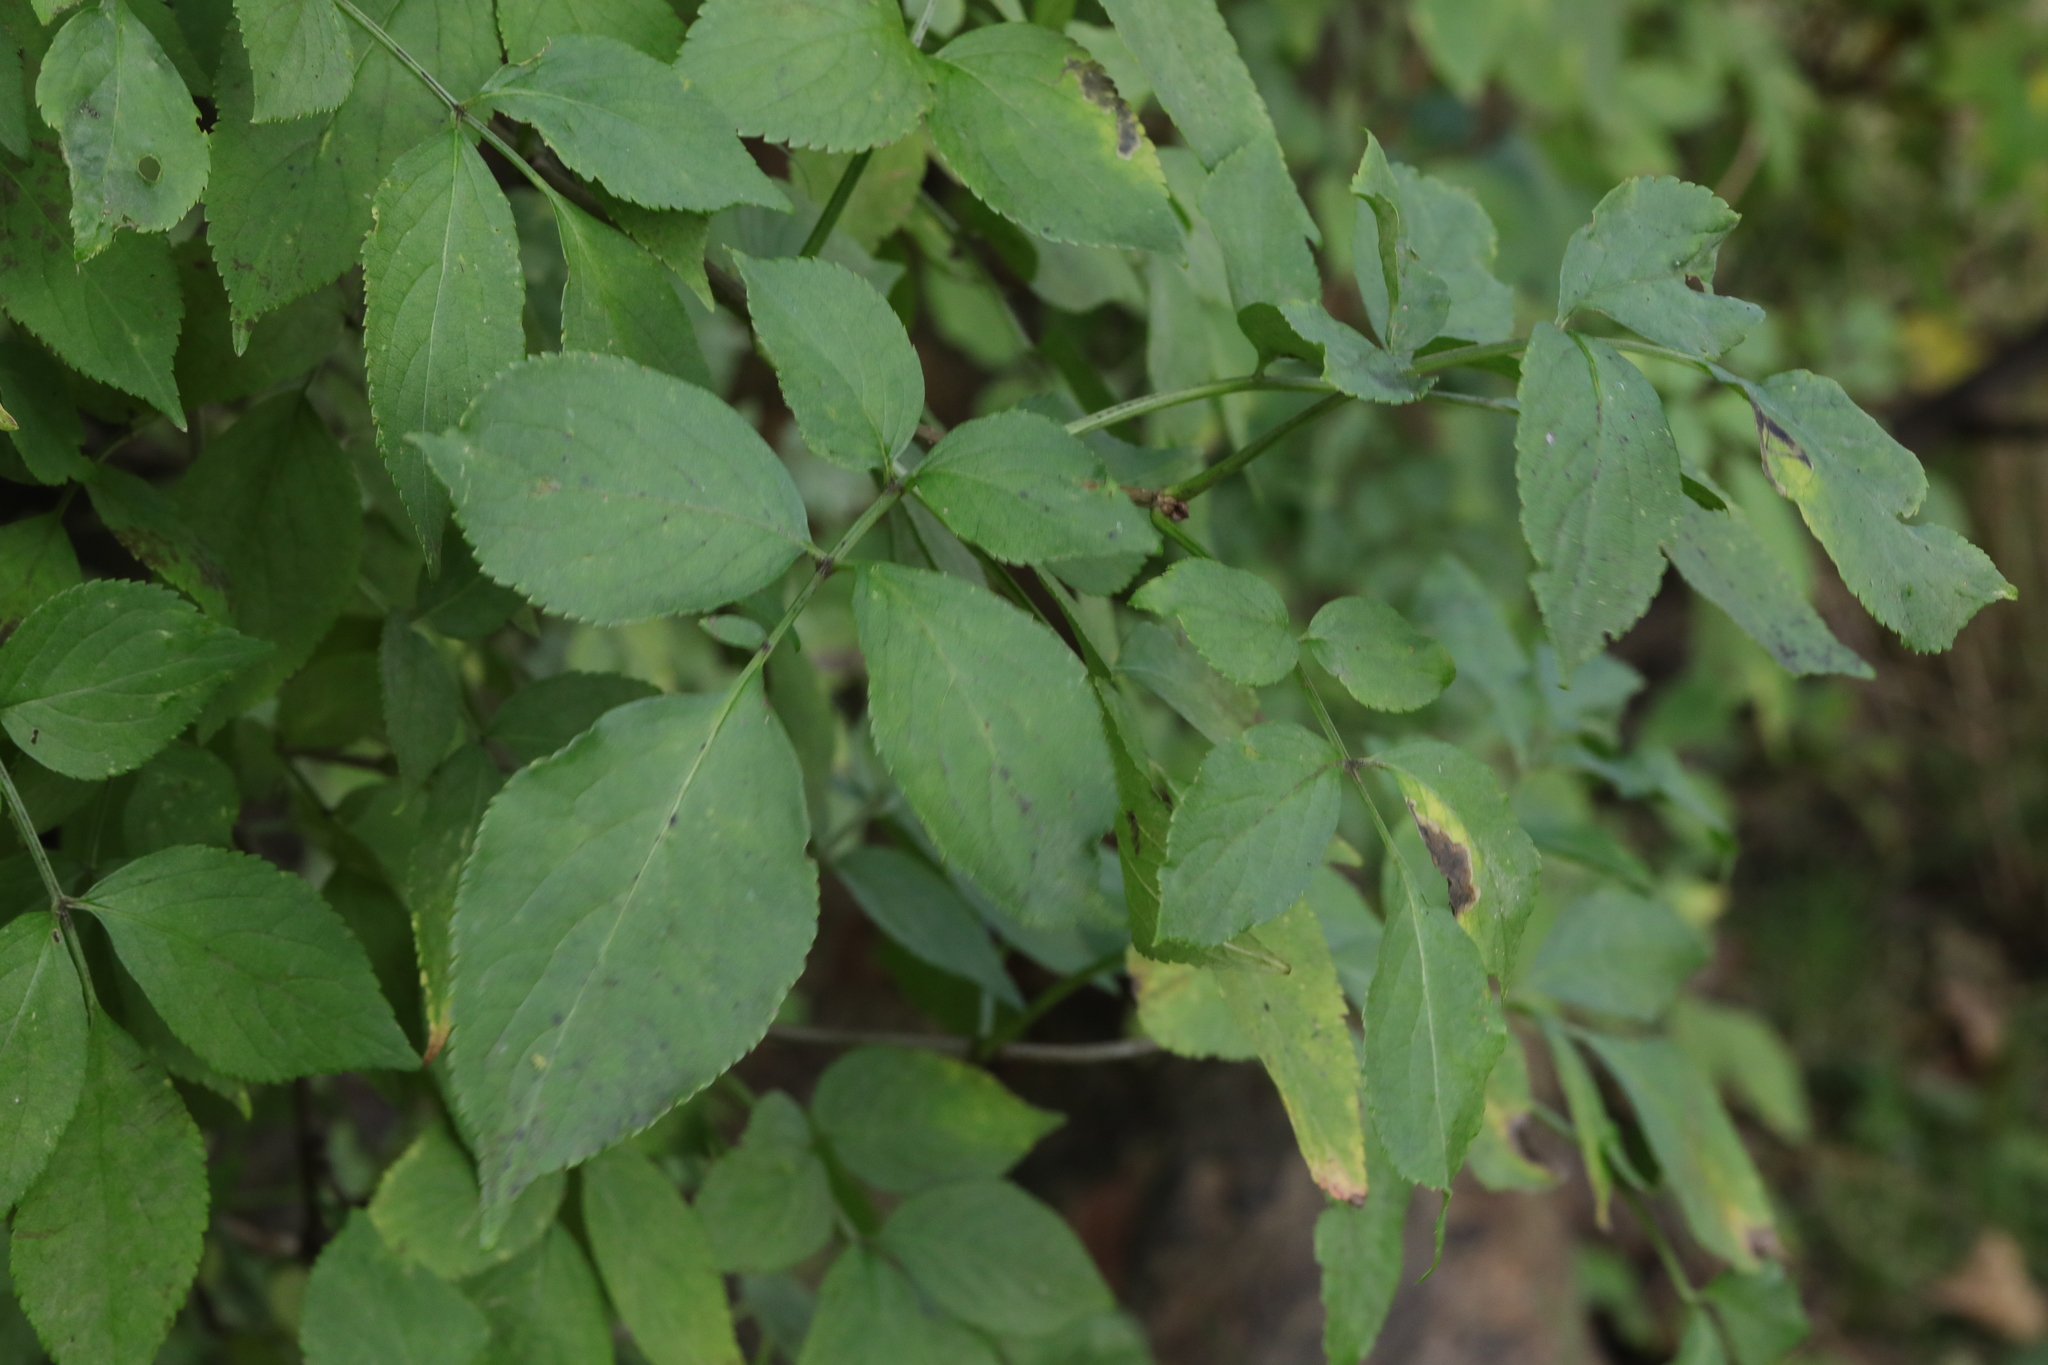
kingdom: Plantae
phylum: Tracheophyta
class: Magnoliopsida
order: Dipsacales
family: Viburnaceae
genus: Sambucus
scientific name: Sambucus nigra
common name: Elder
